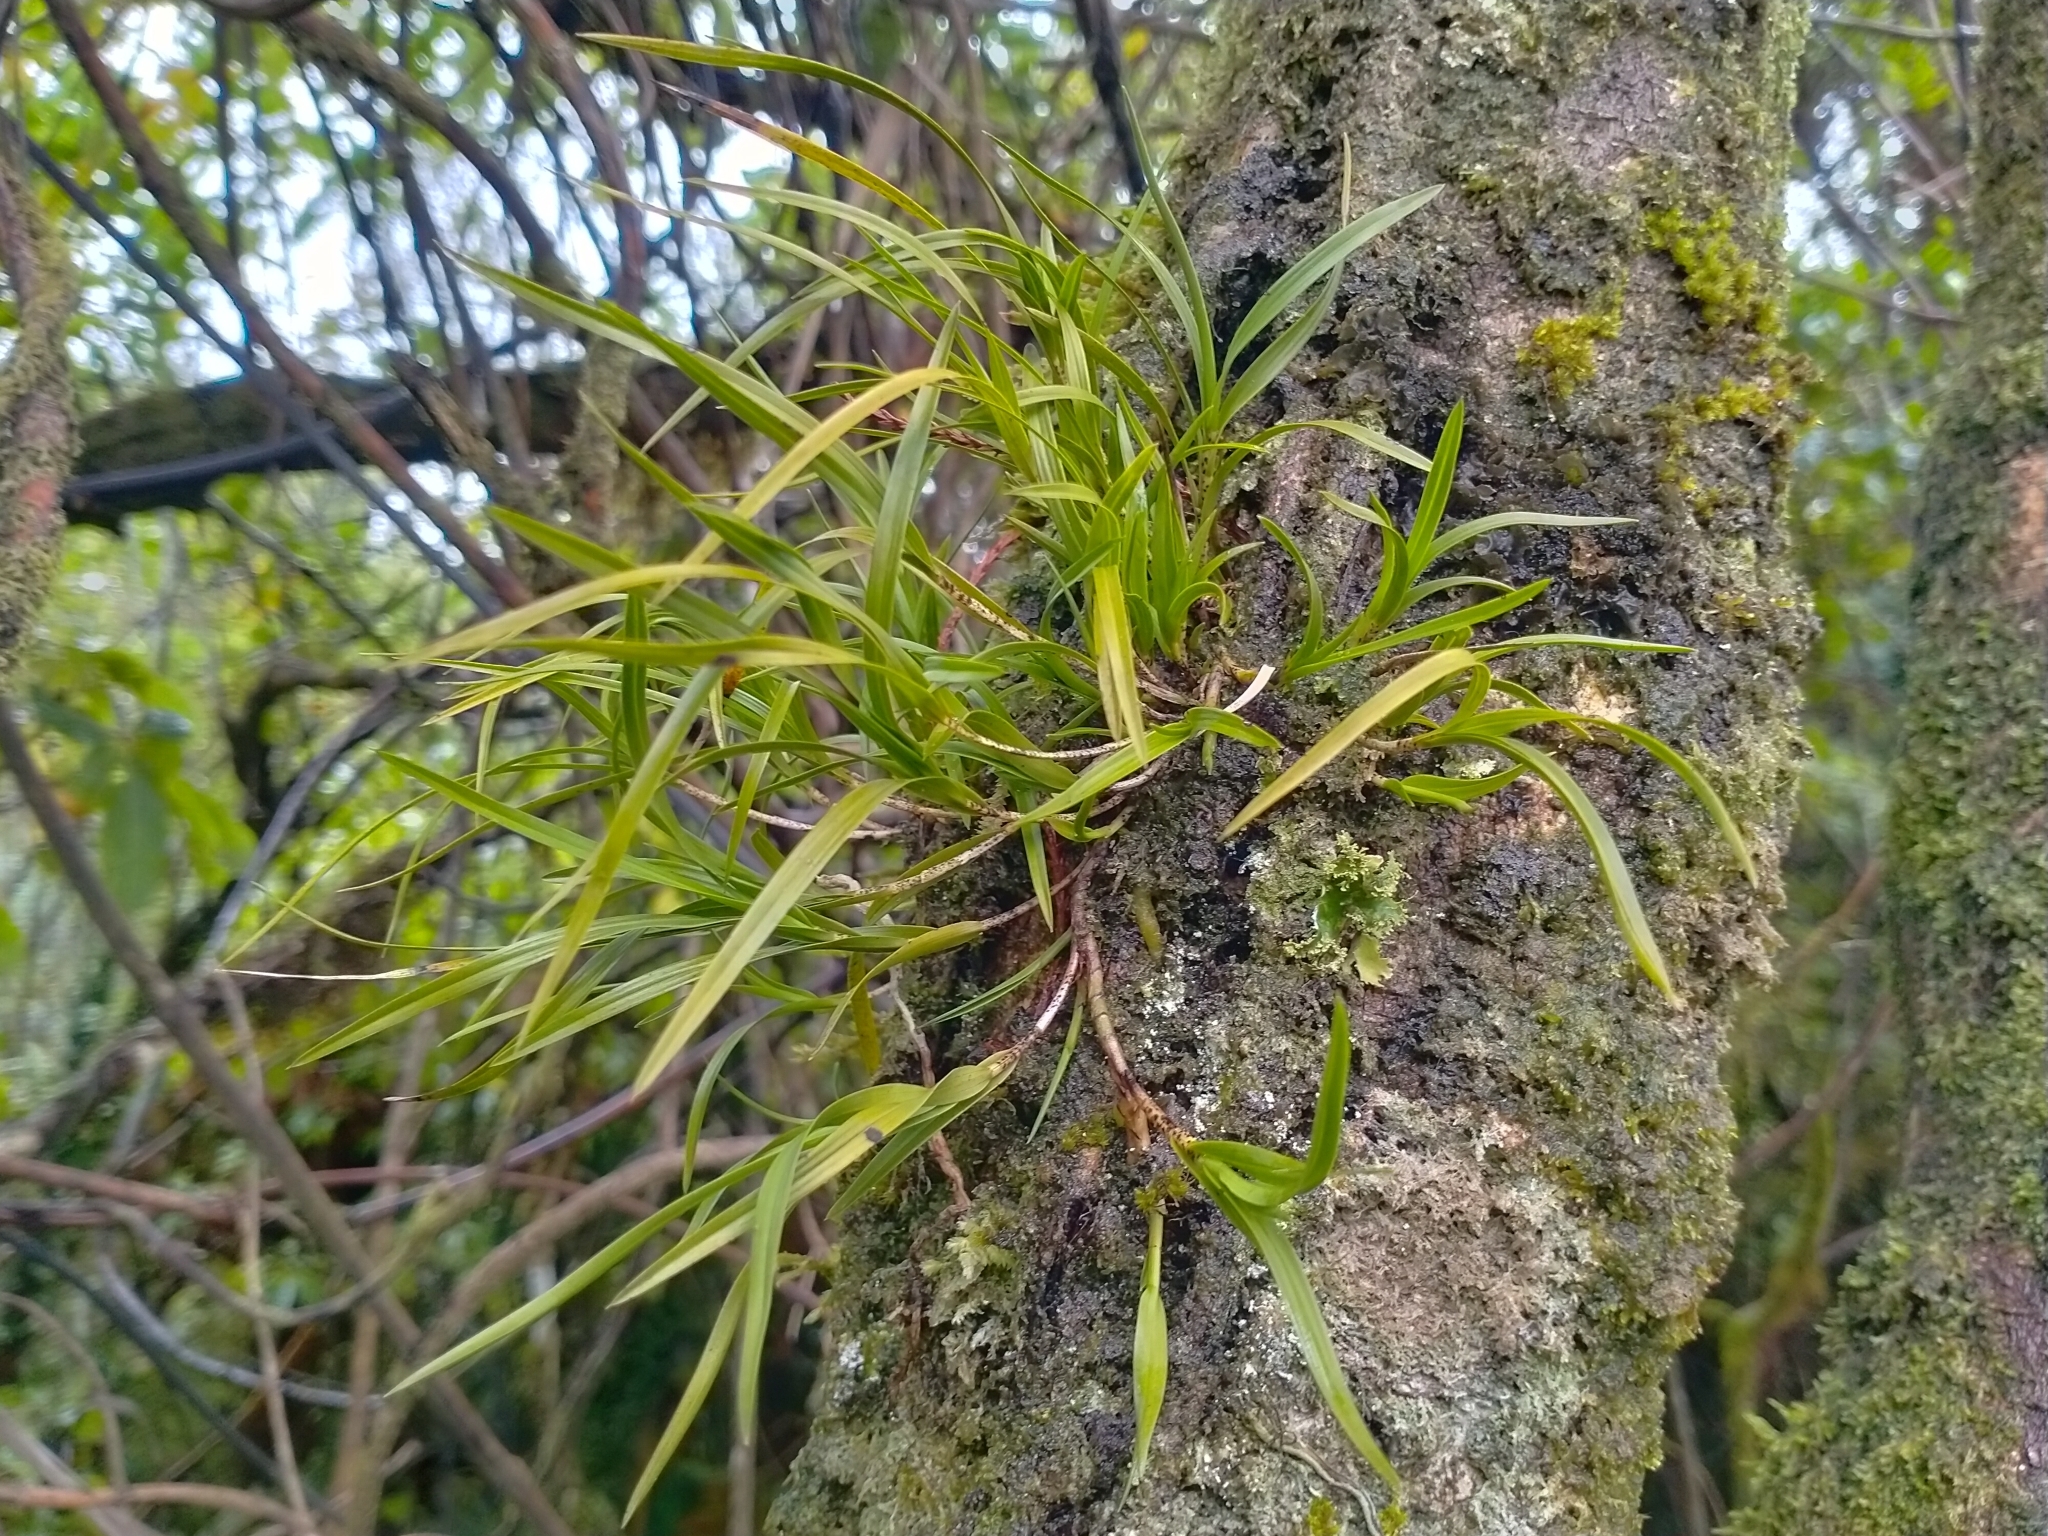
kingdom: Plantae
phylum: Tracheophyta
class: Liliopsida
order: Asparagales
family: Orchidaceae
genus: Earina
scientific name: Earina mucronata
